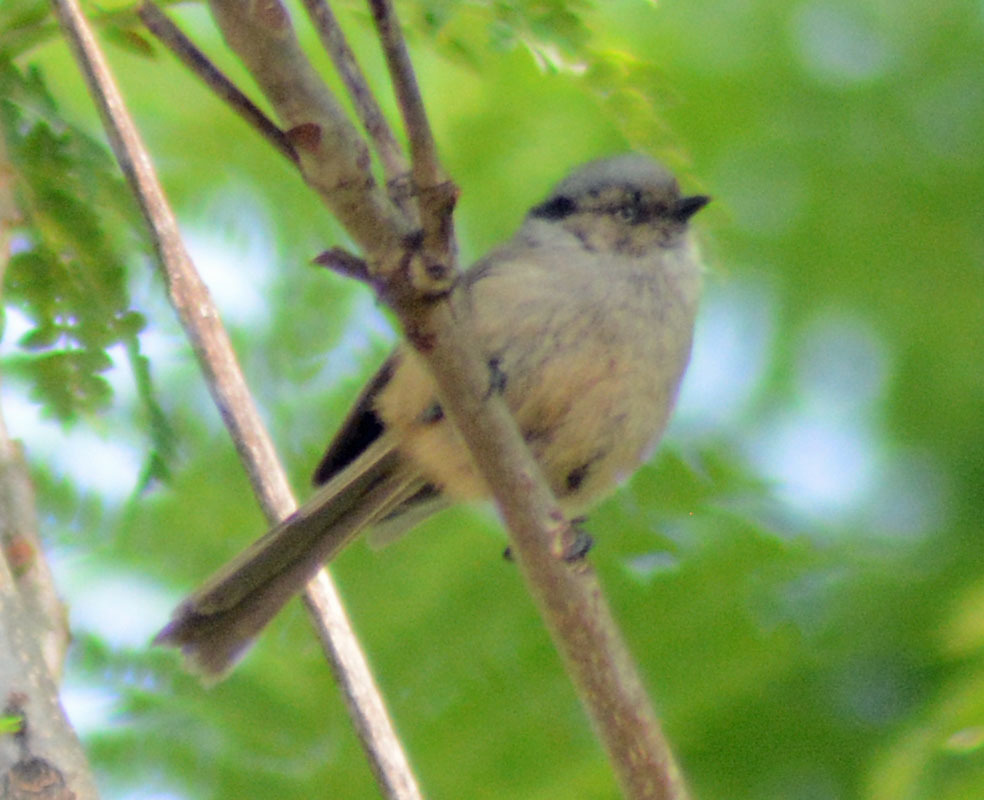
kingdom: Animalia
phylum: Chordata
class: Aves
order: Passeriformes
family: Aegithalidae
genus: Psaltriparus
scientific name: Psaltriparus minimus
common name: American bushtit
